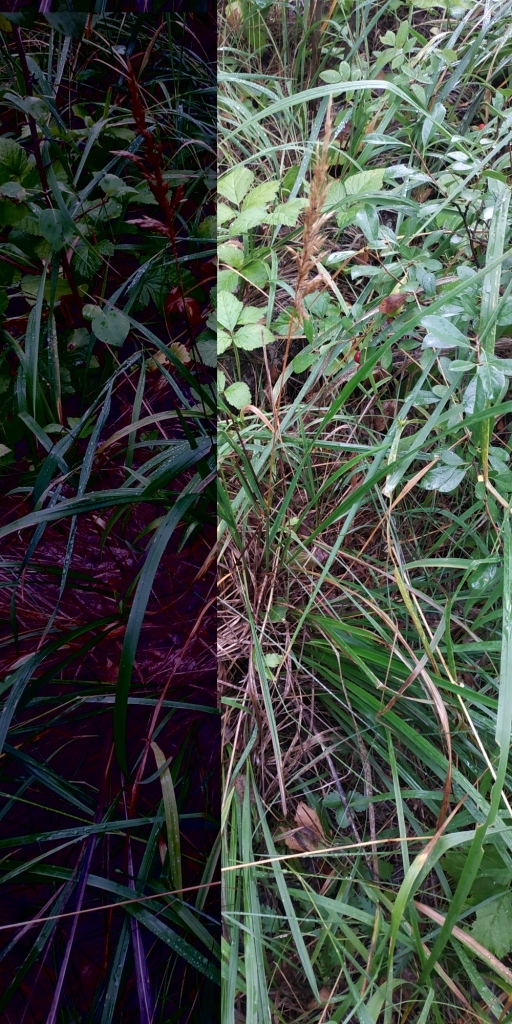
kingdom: Plantae
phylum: Tracheophyta
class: Liliopsida
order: Poales
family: Poaceae
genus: Calamagrostis
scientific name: Calamagrostis arundinacea
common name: Metskastik
